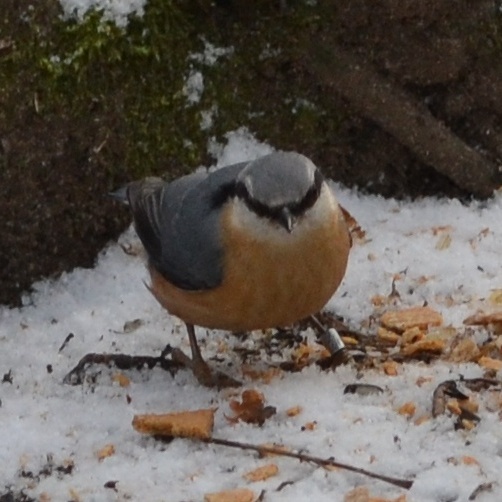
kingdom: Animalia
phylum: Chordata
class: Aves
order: Passeriformes
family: Sittidae
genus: Sitta
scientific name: Sitta europaea
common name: Eurasian nuthatch
